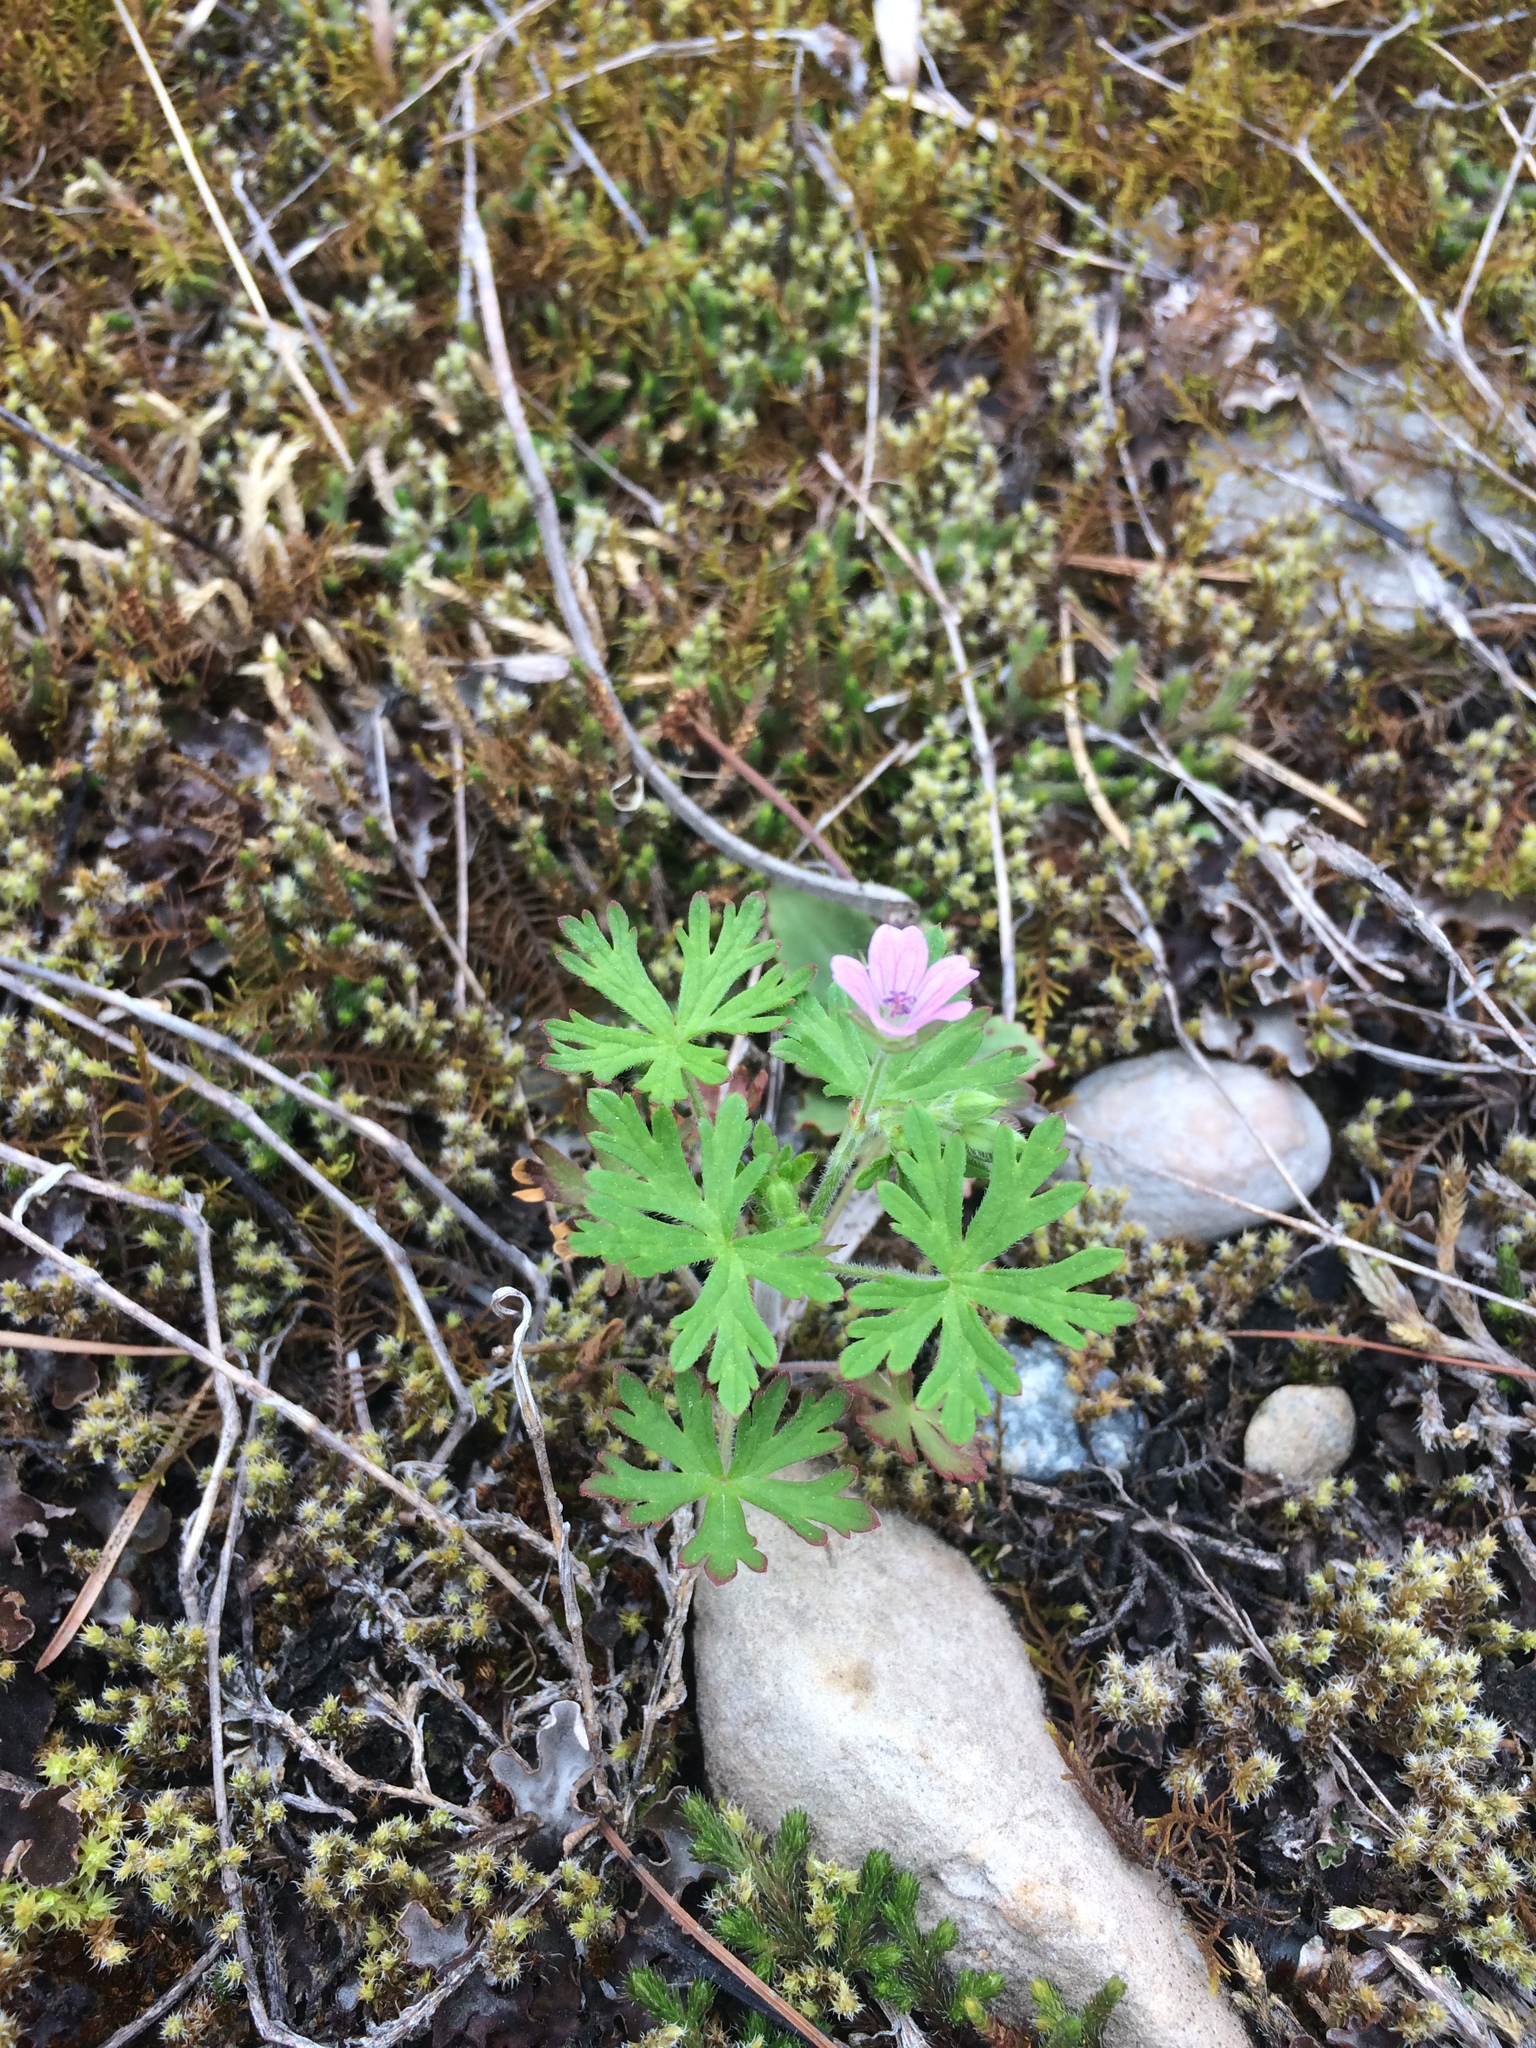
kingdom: Plantae
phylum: Tracheophyta
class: Magnoliopsida
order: Geraniales
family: Geraniaceae
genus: Geranium
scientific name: Geranium bicknellii
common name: Bicknell's cranesbill
